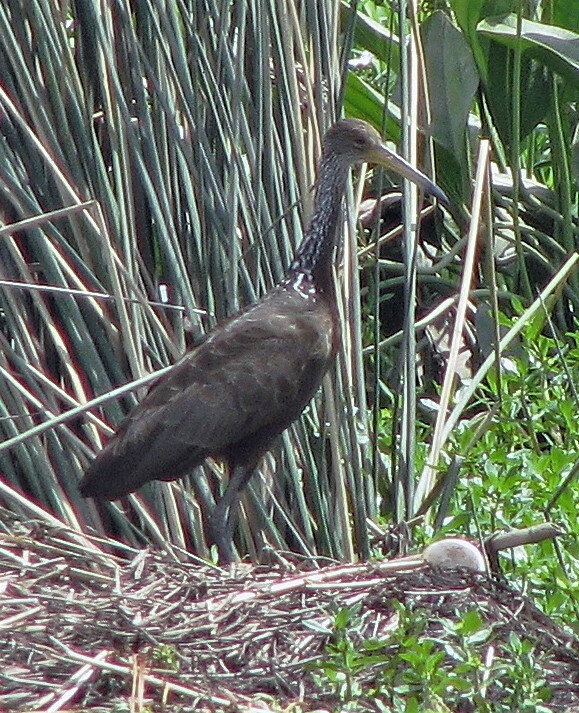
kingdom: Animalia
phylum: Chordata
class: Aves
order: Gruiformes
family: Aramidae
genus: Aramus
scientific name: Aramus guarauna
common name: Limpkin
